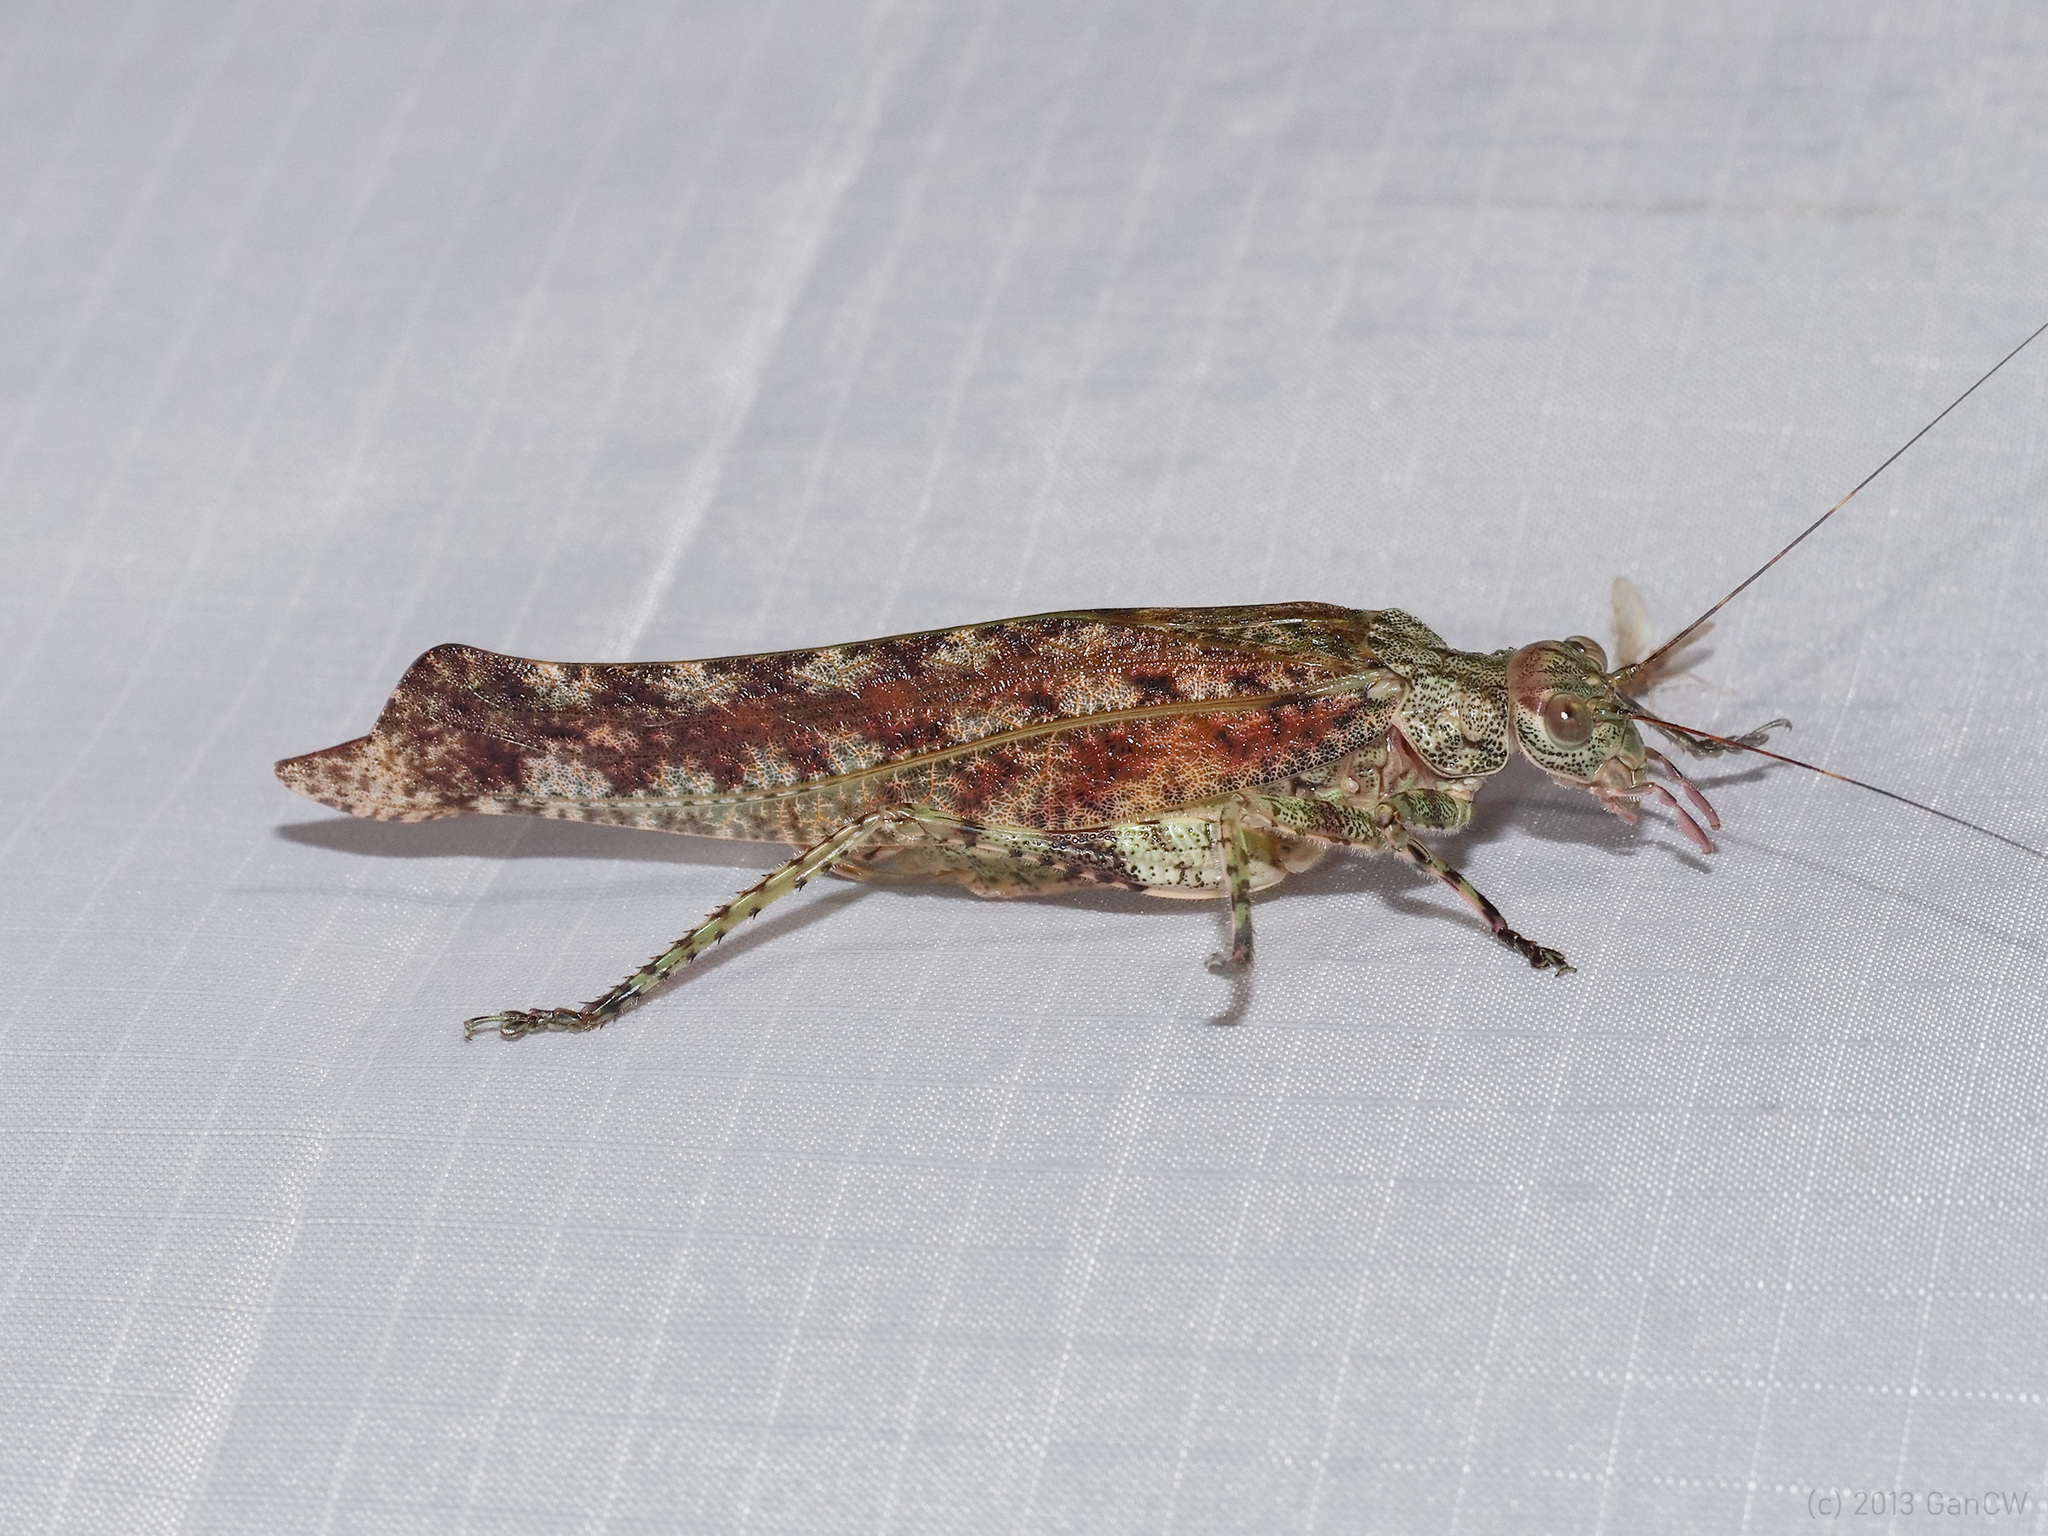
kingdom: Animalia
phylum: Arthropoda
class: Insecta
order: Orthoptera
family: Tettigoniidae
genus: Zulpha
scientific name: Zulpha perlaria
